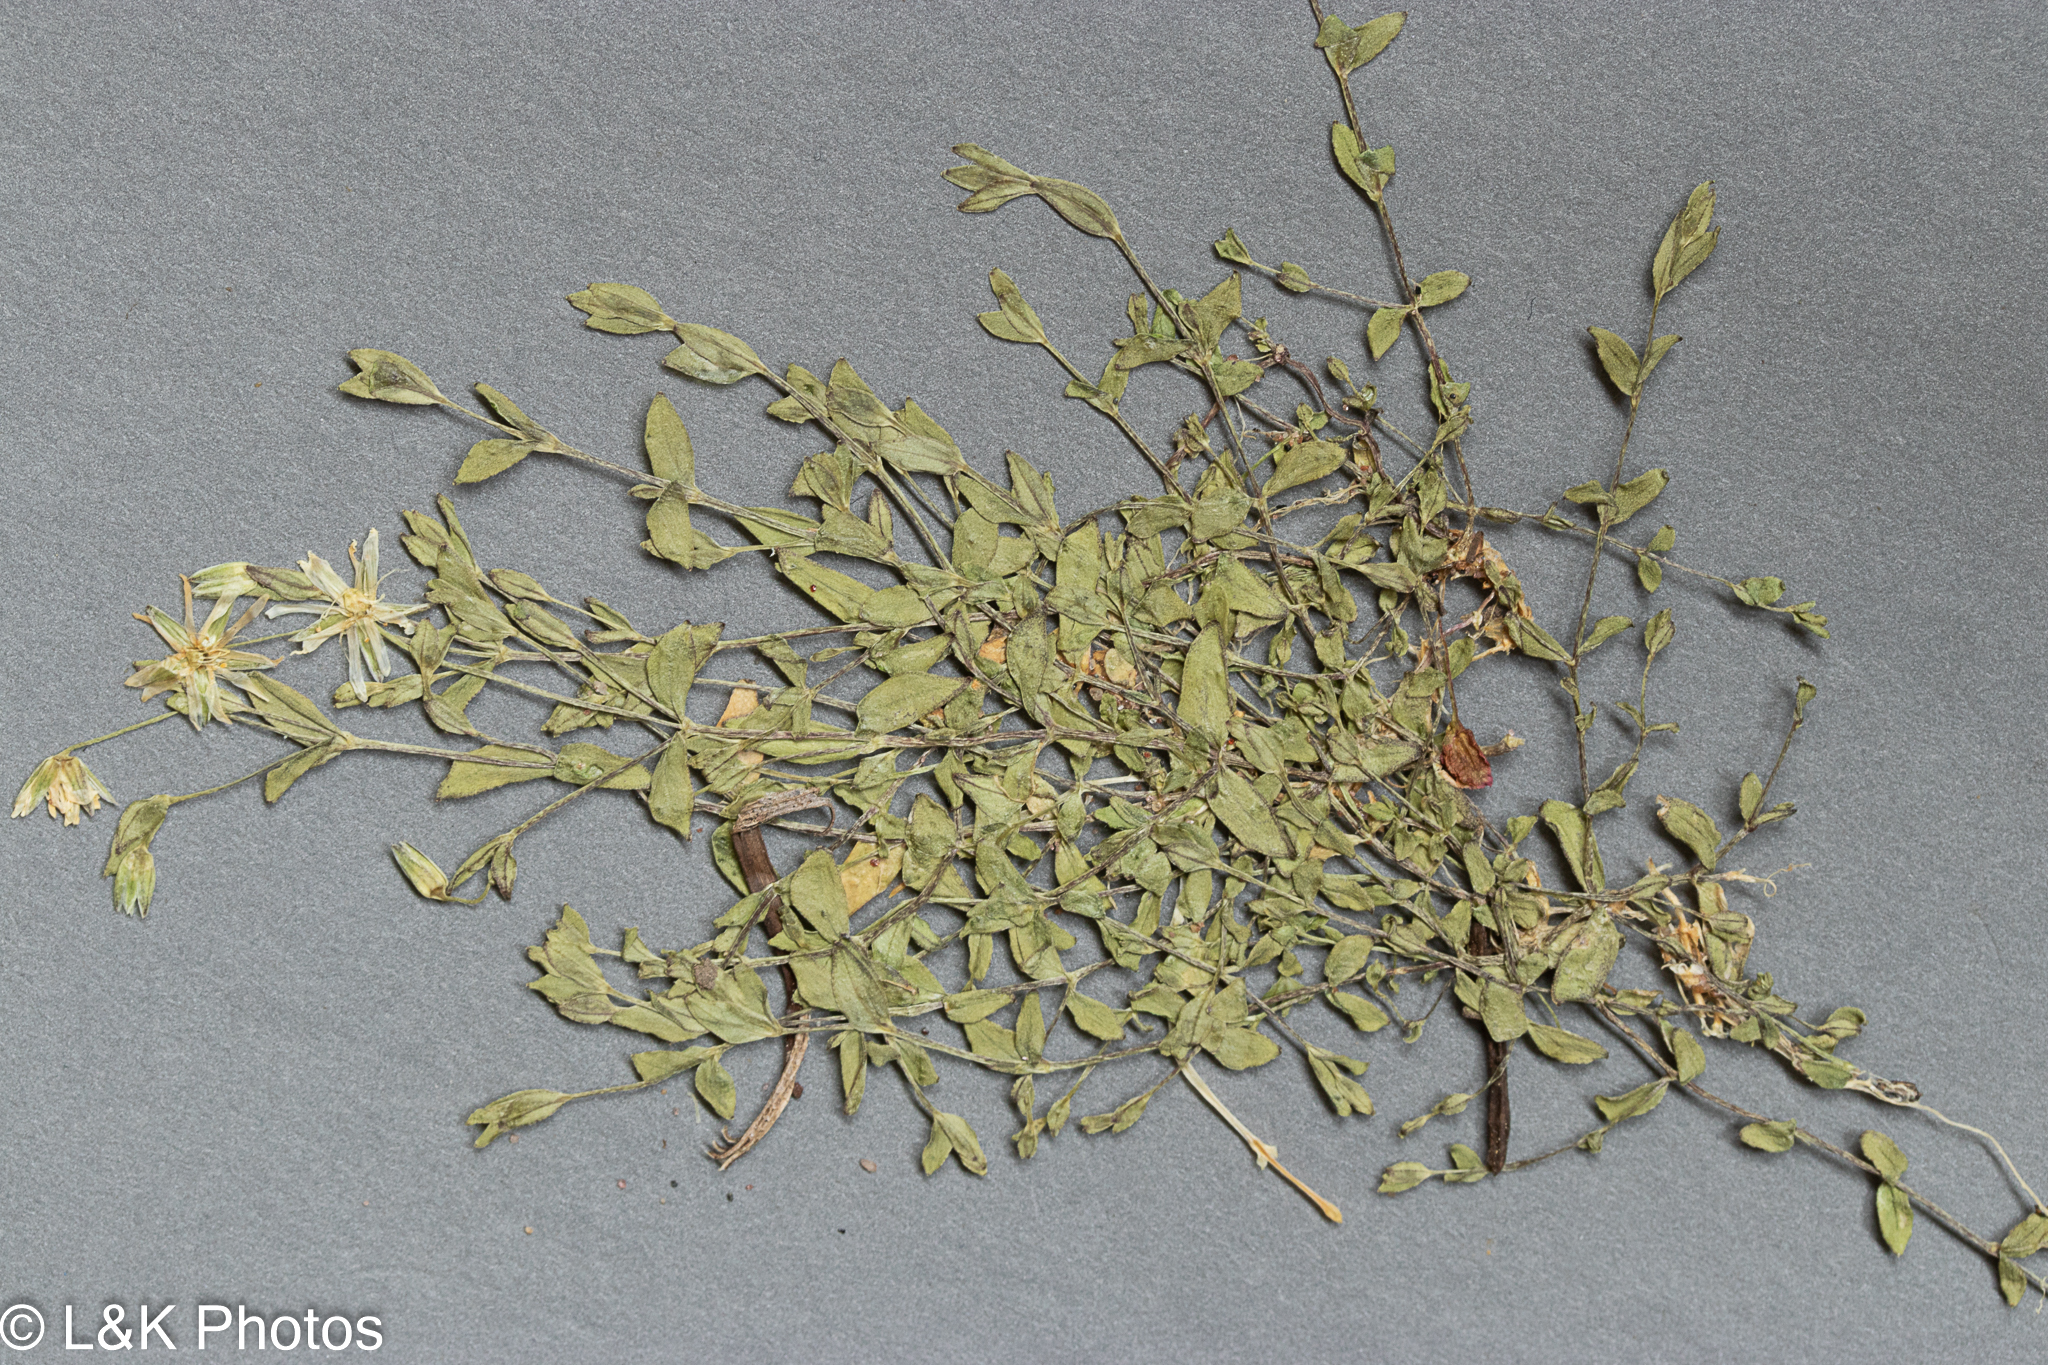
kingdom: Plantae
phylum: Tracheophyta
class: Magnoliopsida
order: Caryophyllales
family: Caryophyllaceae
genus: Stellaria
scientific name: Stellaria crassifolia
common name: Fleshy starwort
